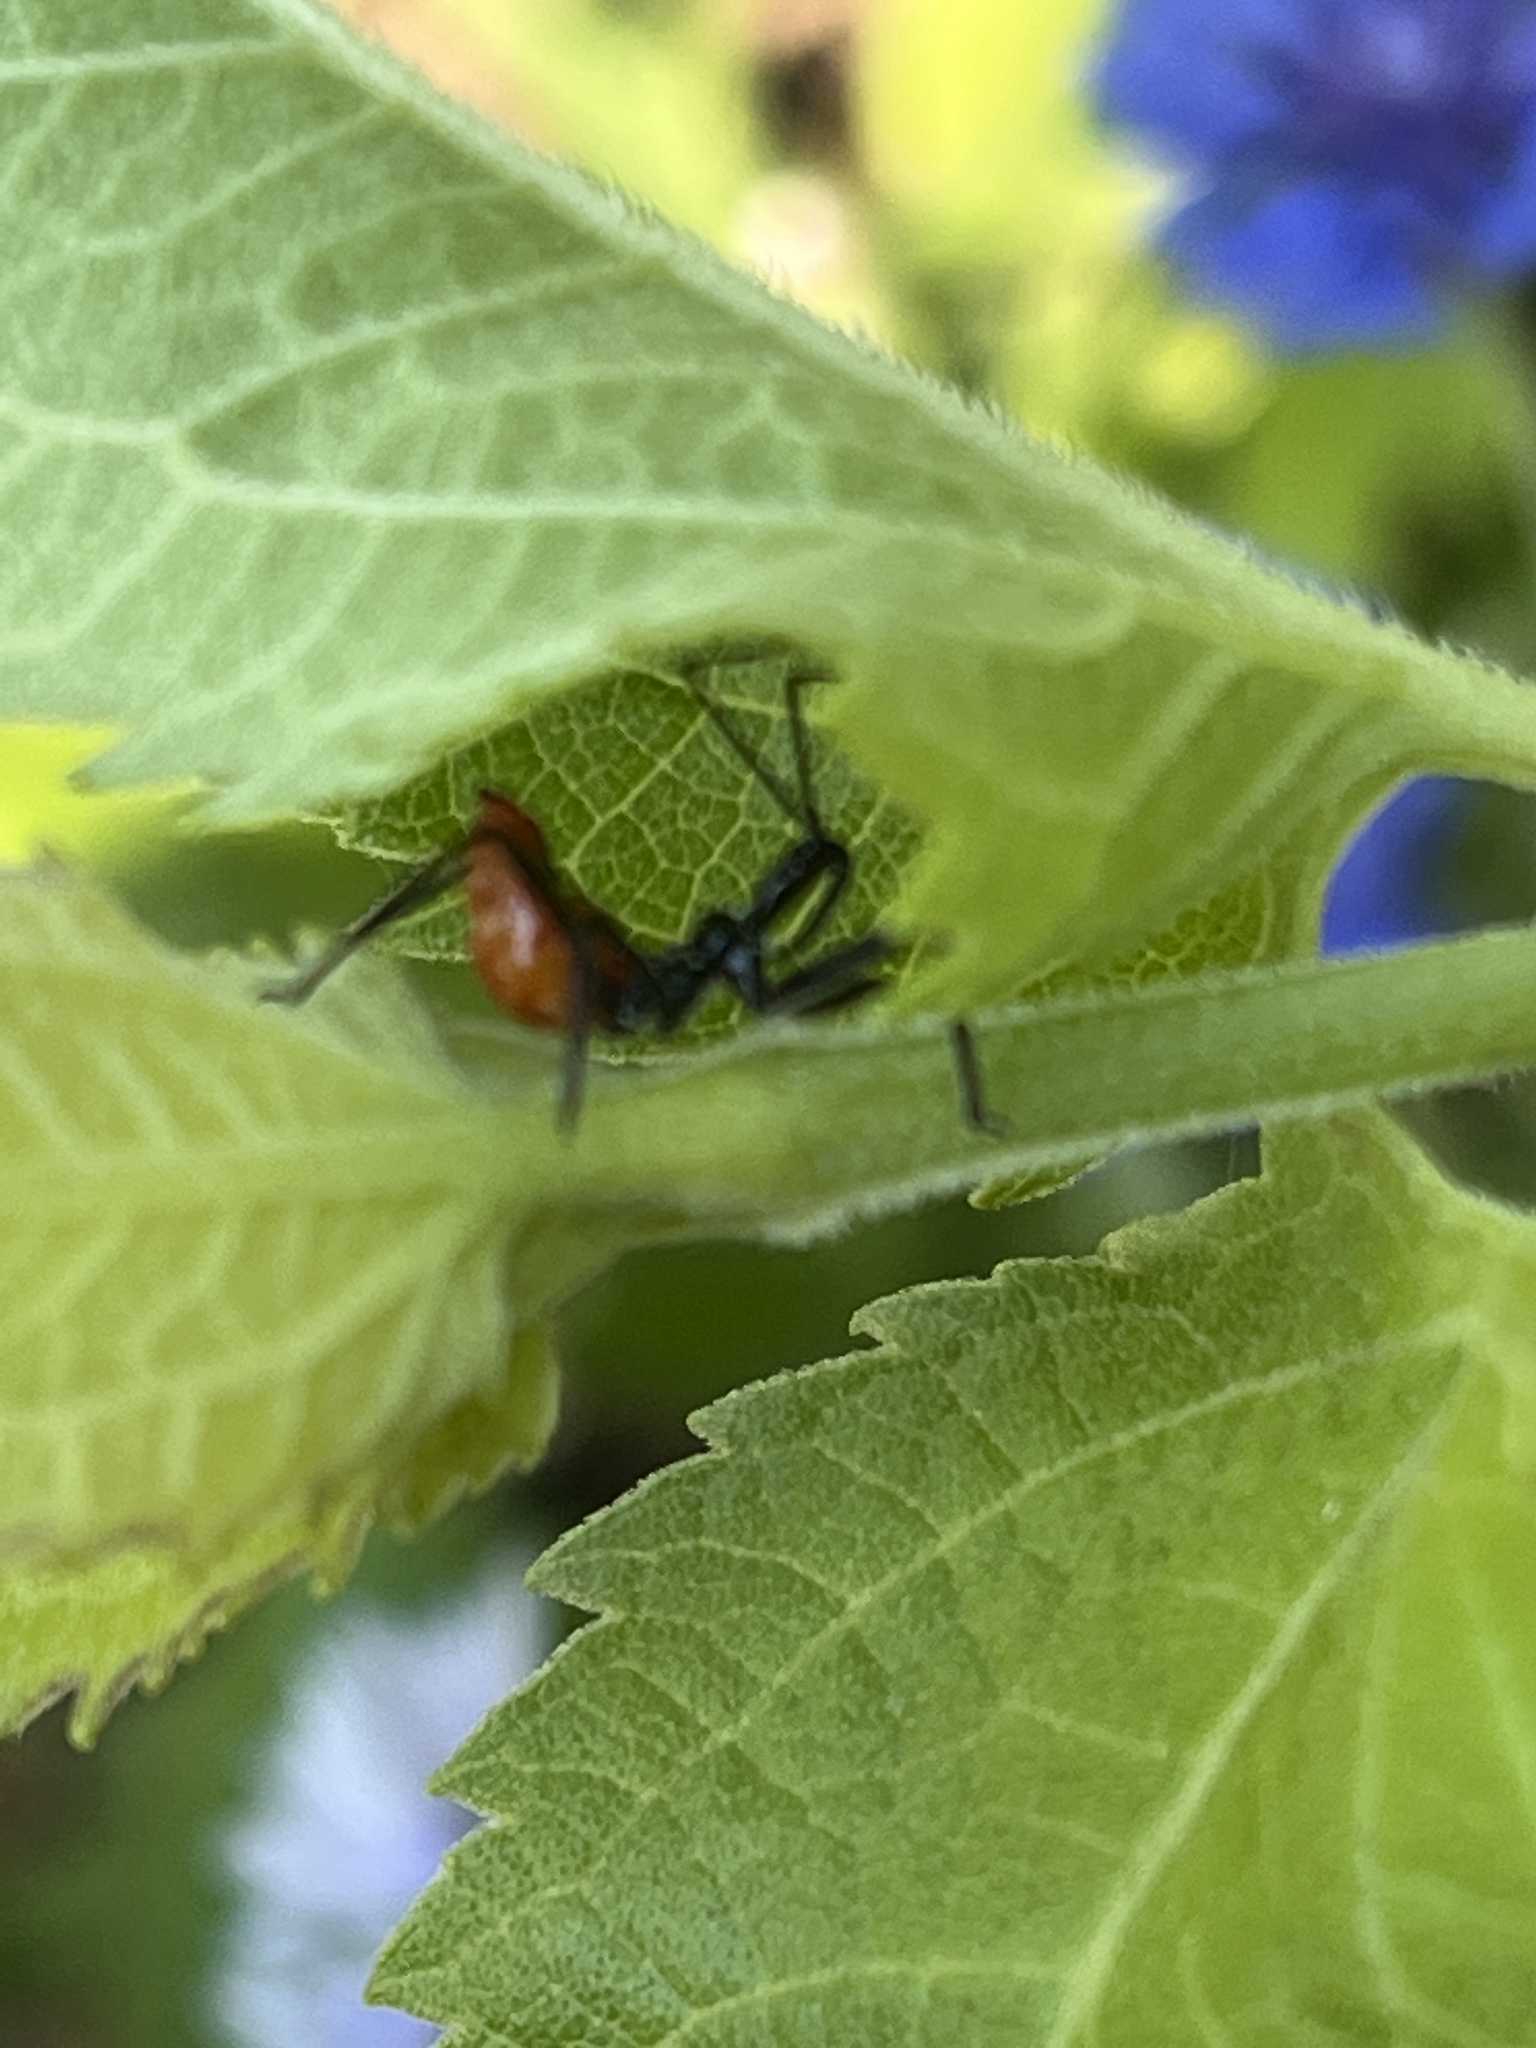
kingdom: Animalia
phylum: Arthropoda
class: Insecta
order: Hemiptera
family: Reduviidae
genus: Arilus
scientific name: Arilus cristatus
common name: North american wheel bug
